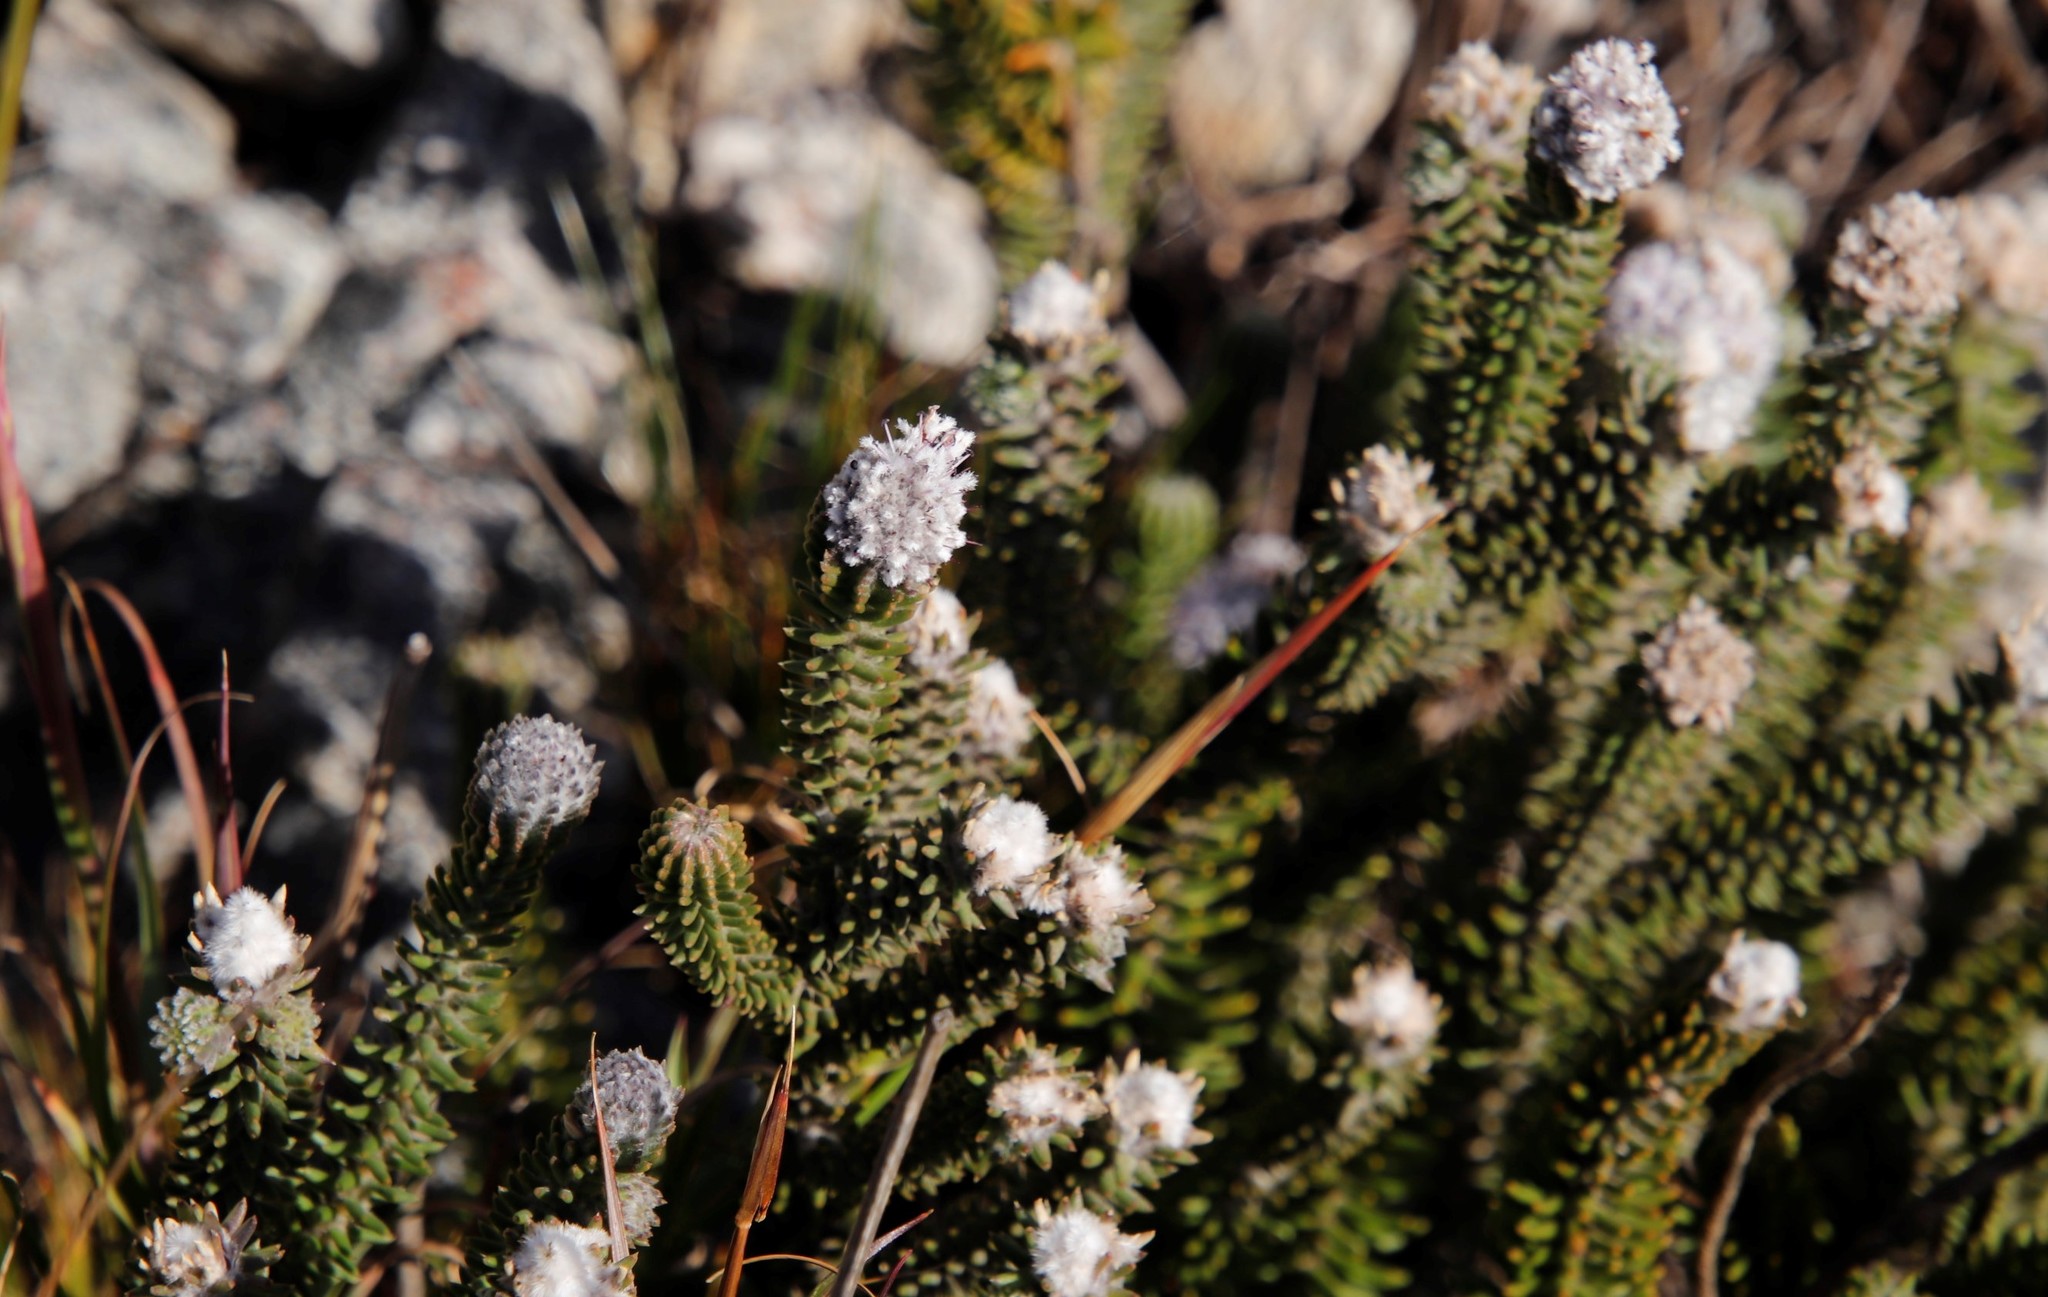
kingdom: Plantae
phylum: Tracheophyta
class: Magnoliopsida
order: Lamiales
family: Stilbaceae
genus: Kogelbergia
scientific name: Kogelbergia verticillata
